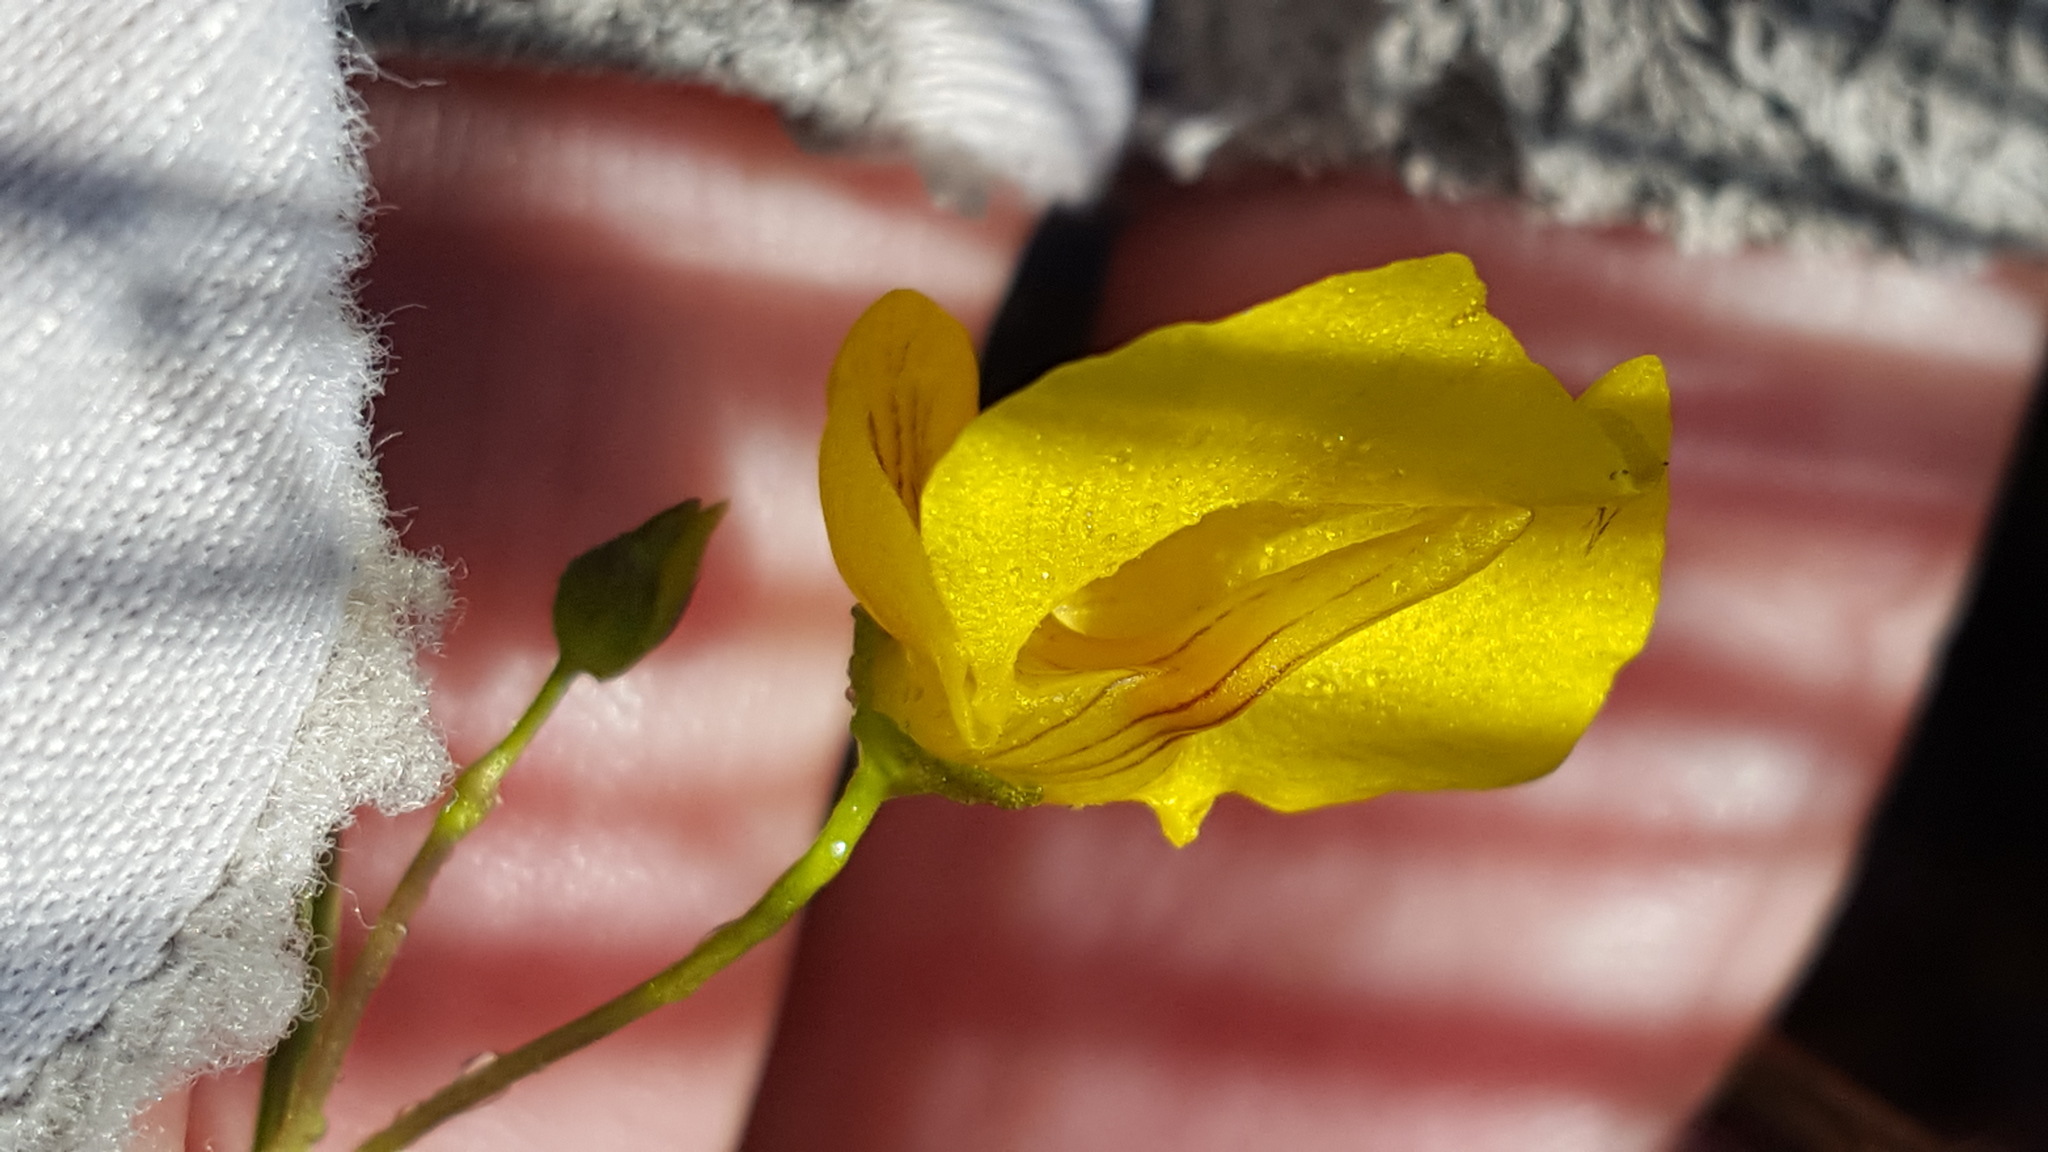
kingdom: Plantae
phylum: Tracheophyta
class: Magnoliopsida
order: Lamiales
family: Lentibulariaceae
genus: Utricularia
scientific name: Utricularia intermedia
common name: Intermediate bladderwort
